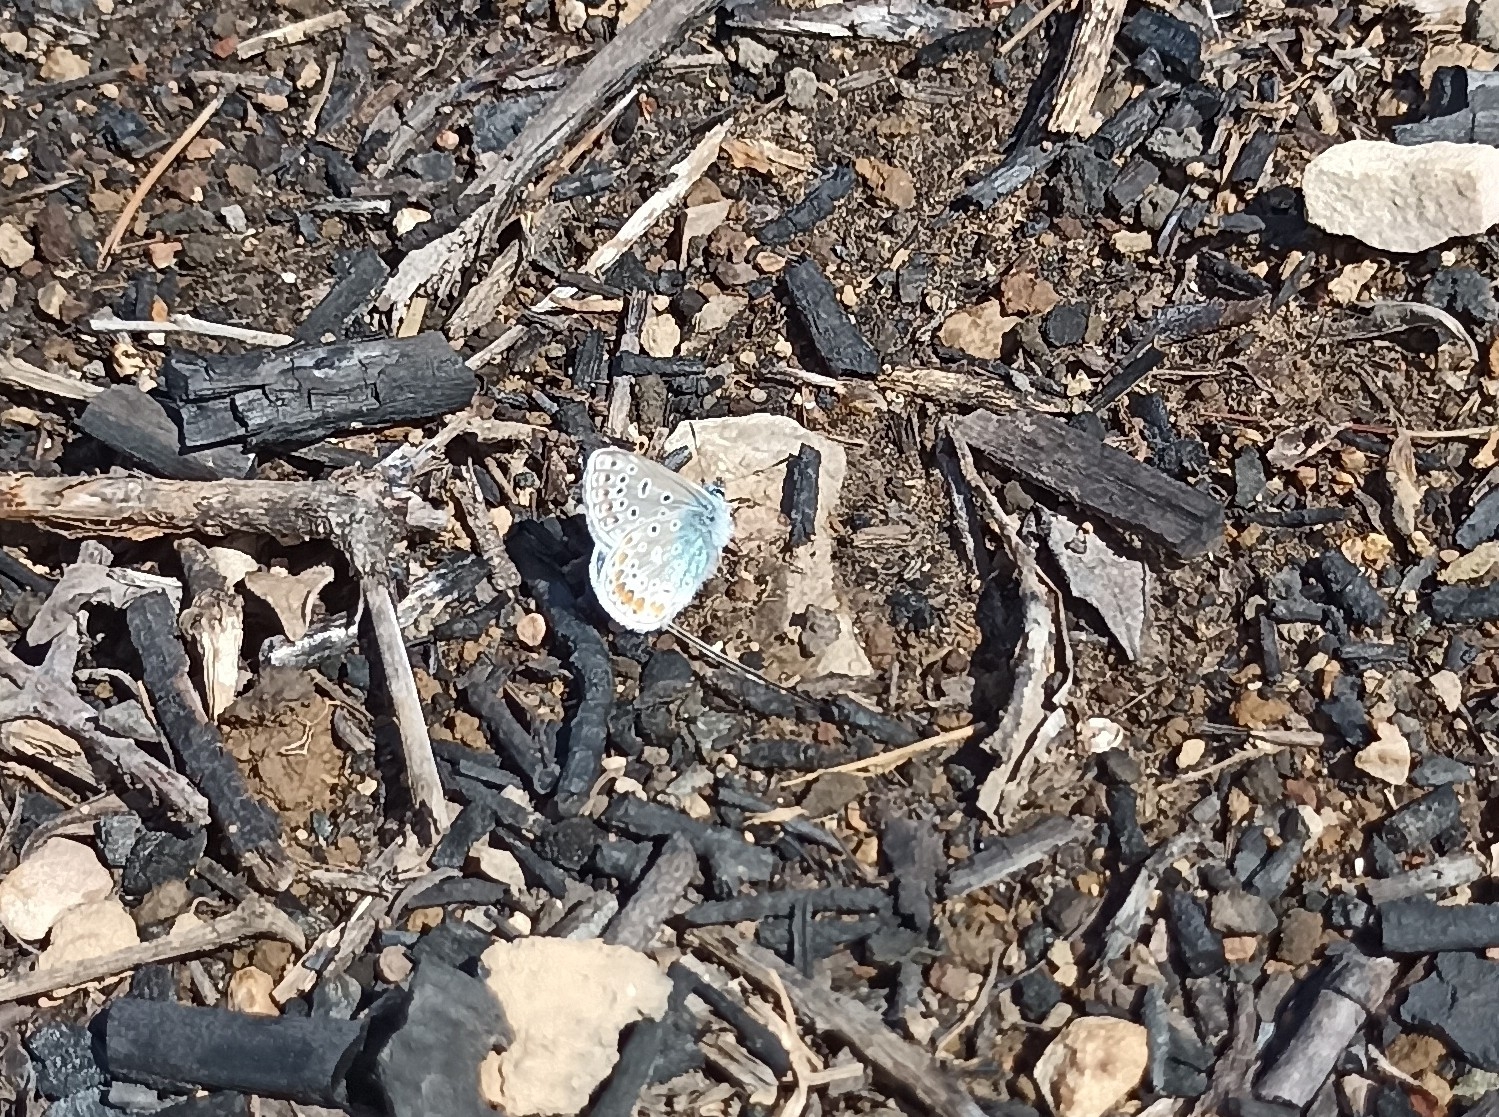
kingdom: Animalia
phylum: Arthropoda
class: Insecta
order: Lepidoptera
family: Lycaenidae
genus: Polyommatus
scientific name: Polyommatus icarus
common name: Common blue
